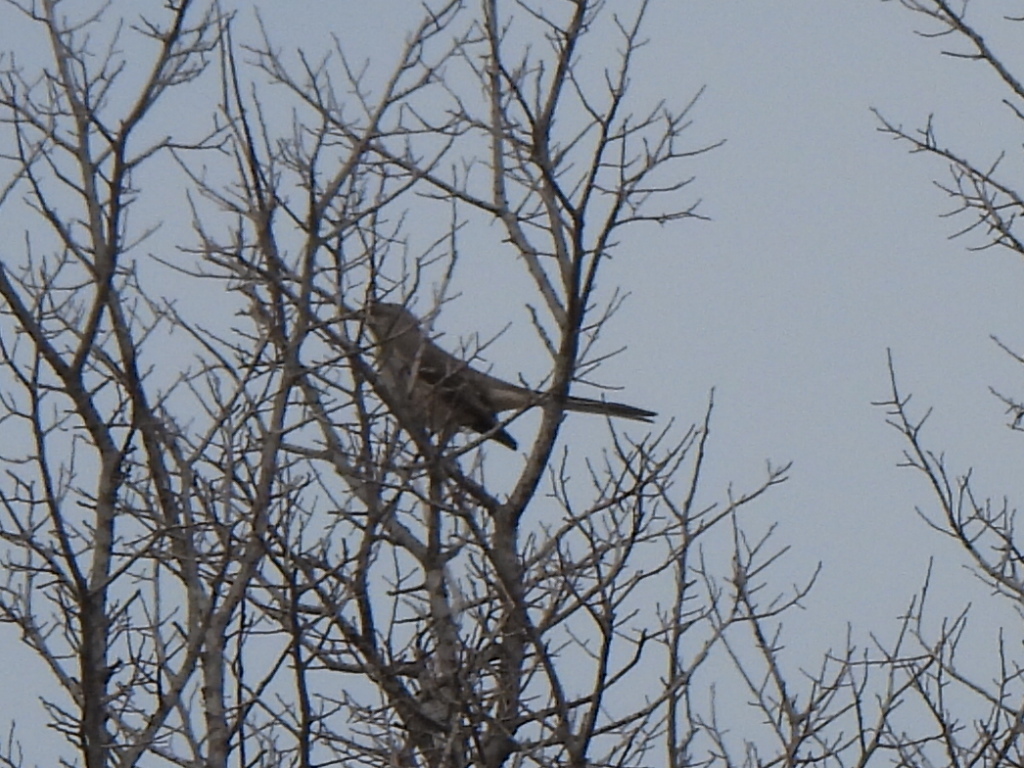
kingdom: Animalia
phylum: Chordata
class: Aves
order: Passeriformes
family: Mimidae
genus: Mimus
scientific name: Mimus polyglottos
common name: Northern mockingbird
